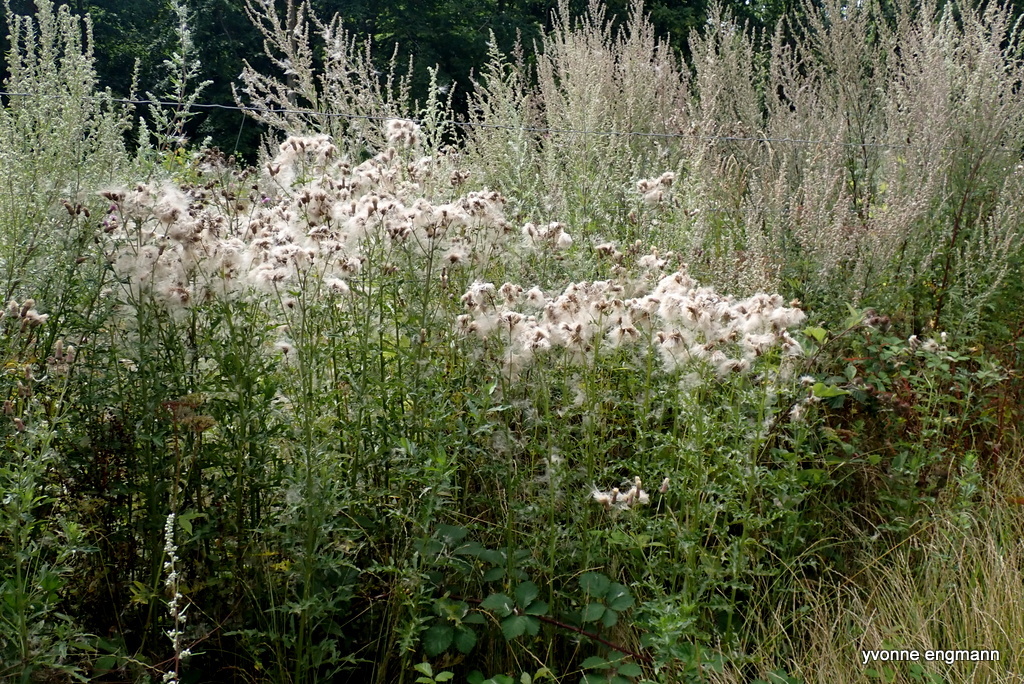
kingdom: Plantae
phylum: Tracheophyta
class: Magnoliopsida
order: Asterales
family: Asteraceae
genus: Cirsium
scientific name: Cirsium arvense
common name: Creeping thistle
